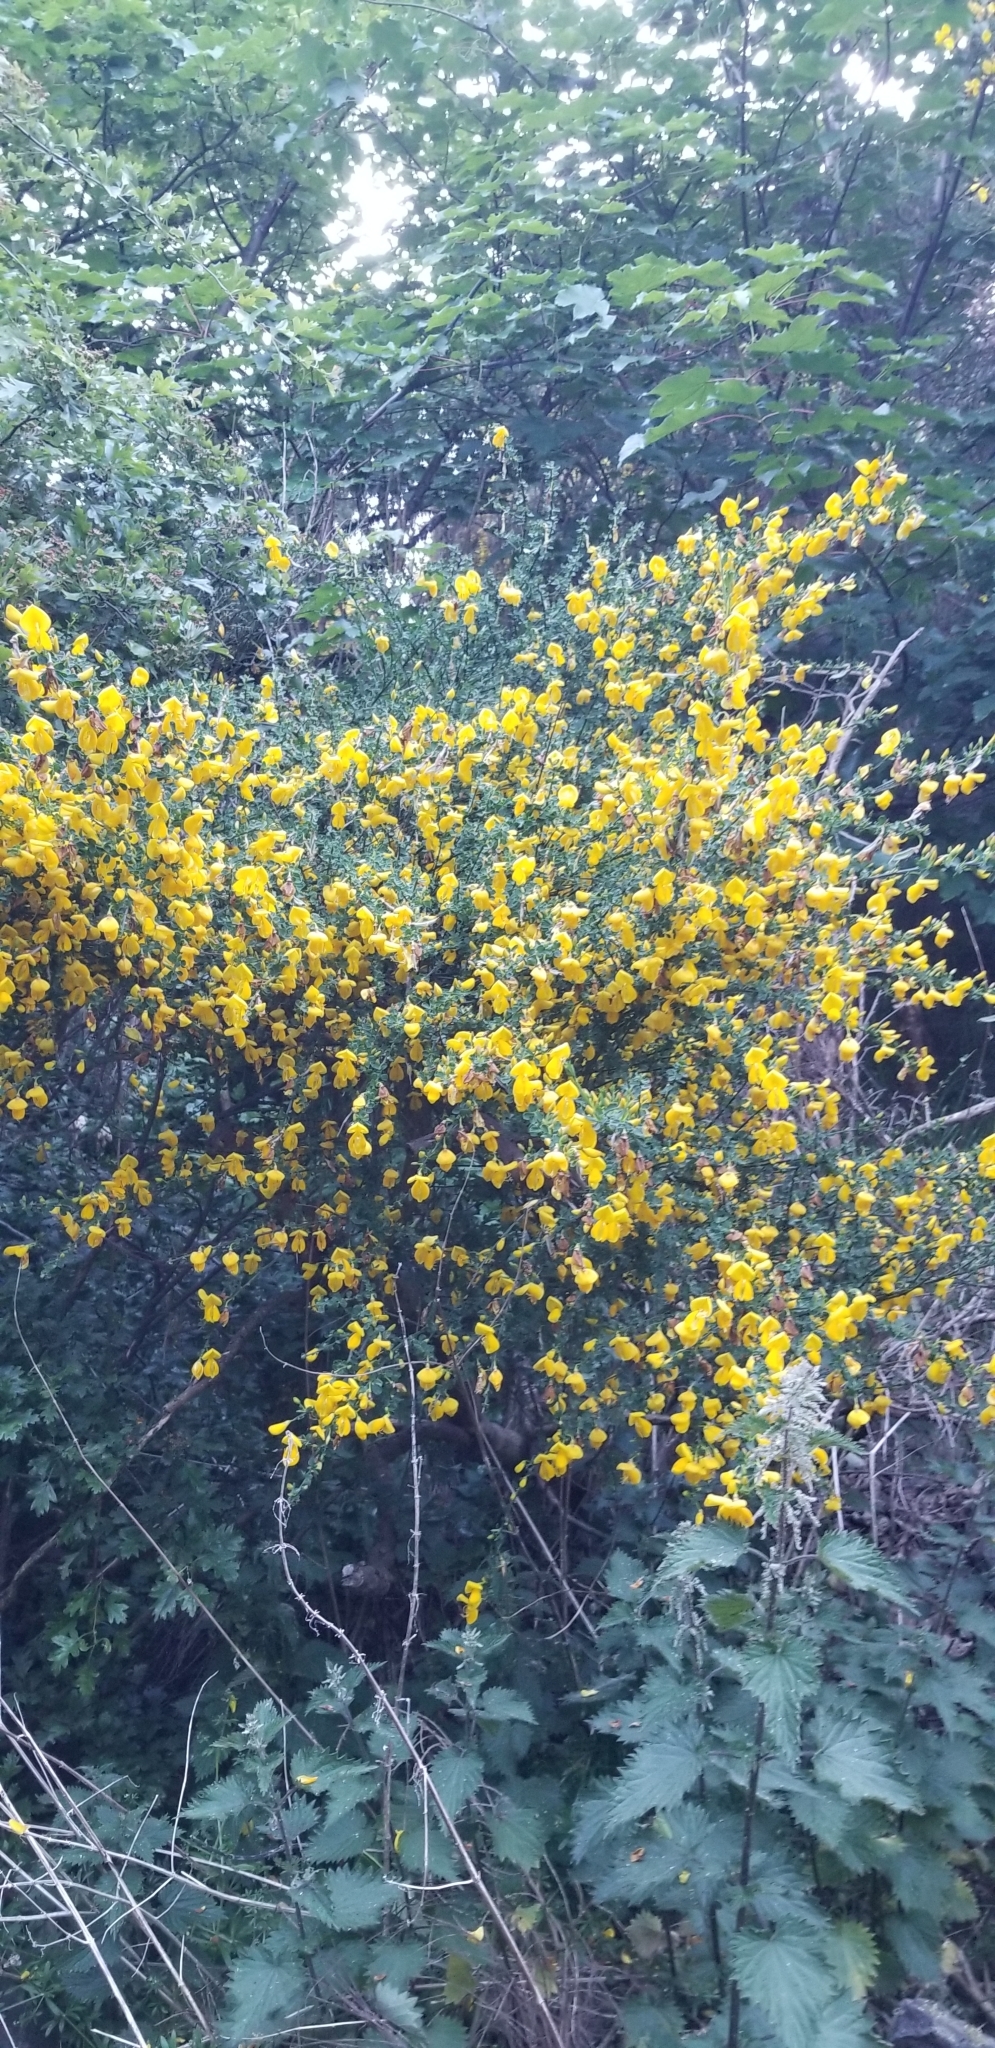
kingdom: Plantae
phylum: Tracheophyta
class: Magnoliopsida
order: Fabales
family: Fabaceae
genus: Cytisus
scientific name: Cytisus scoparius
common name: Scotch broom
